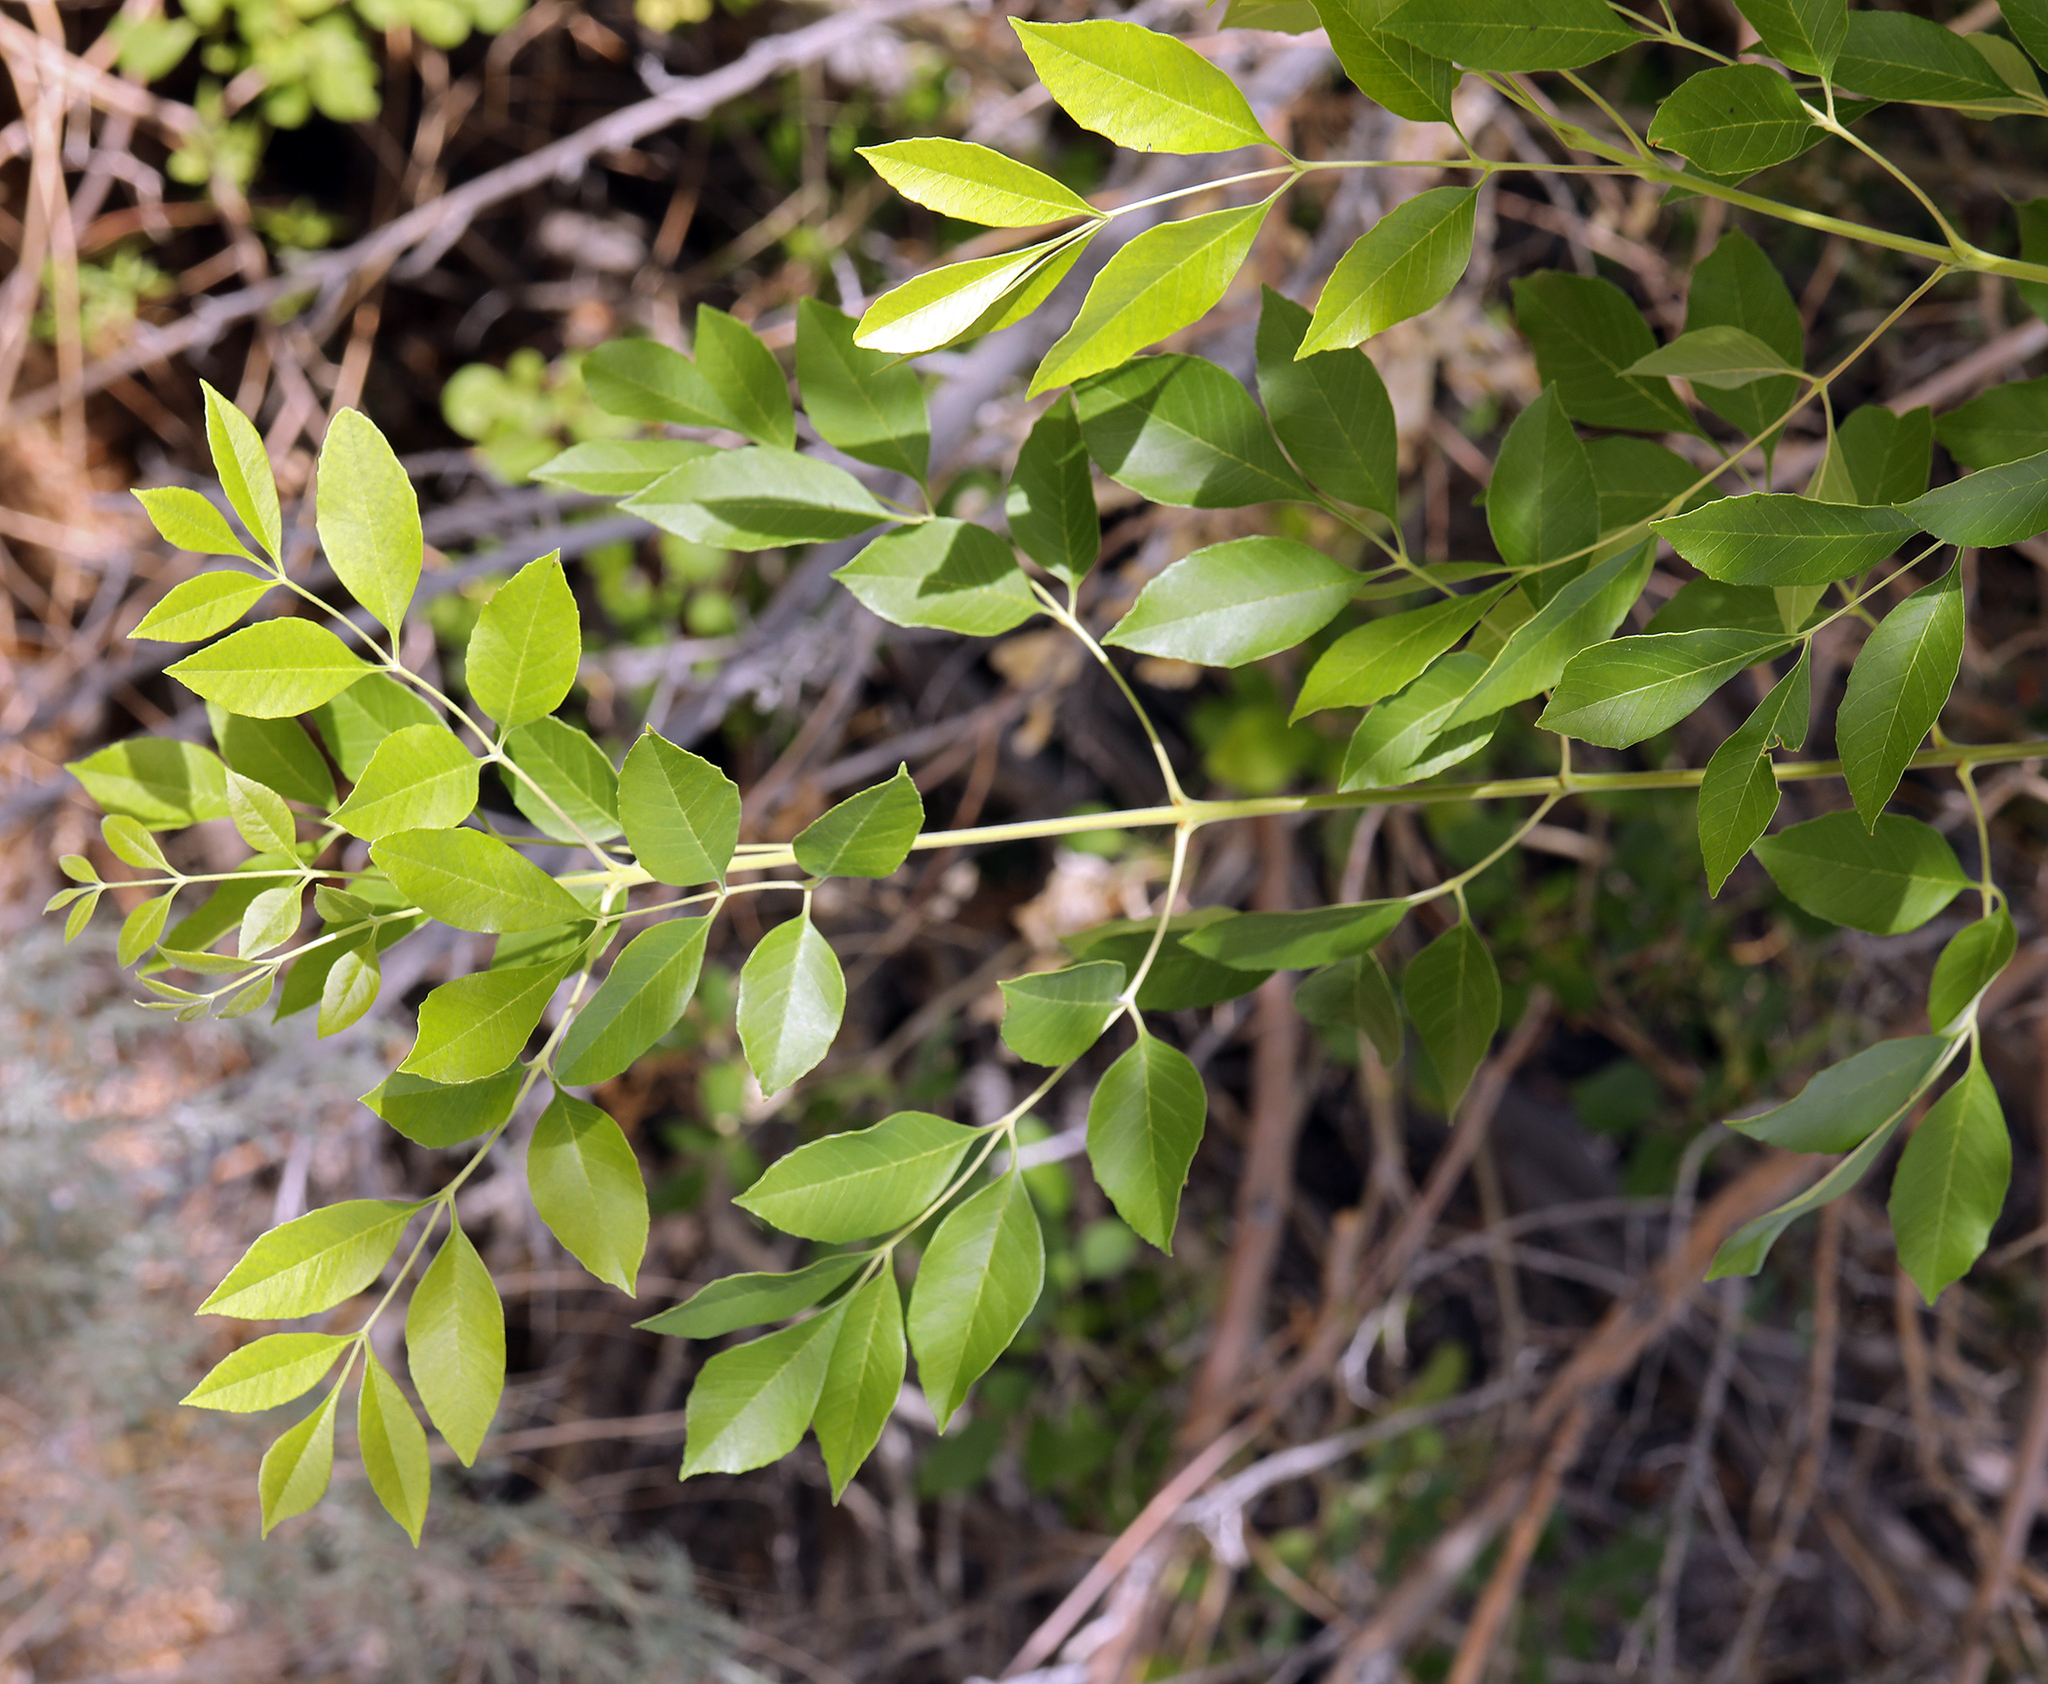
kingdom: Plantae
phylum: Tracheophyta
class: Magnoliopsida
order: Lamiales
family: Oleaceae
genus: Fraxinus
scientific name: Fraxinus velutina
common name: Arizon ash
